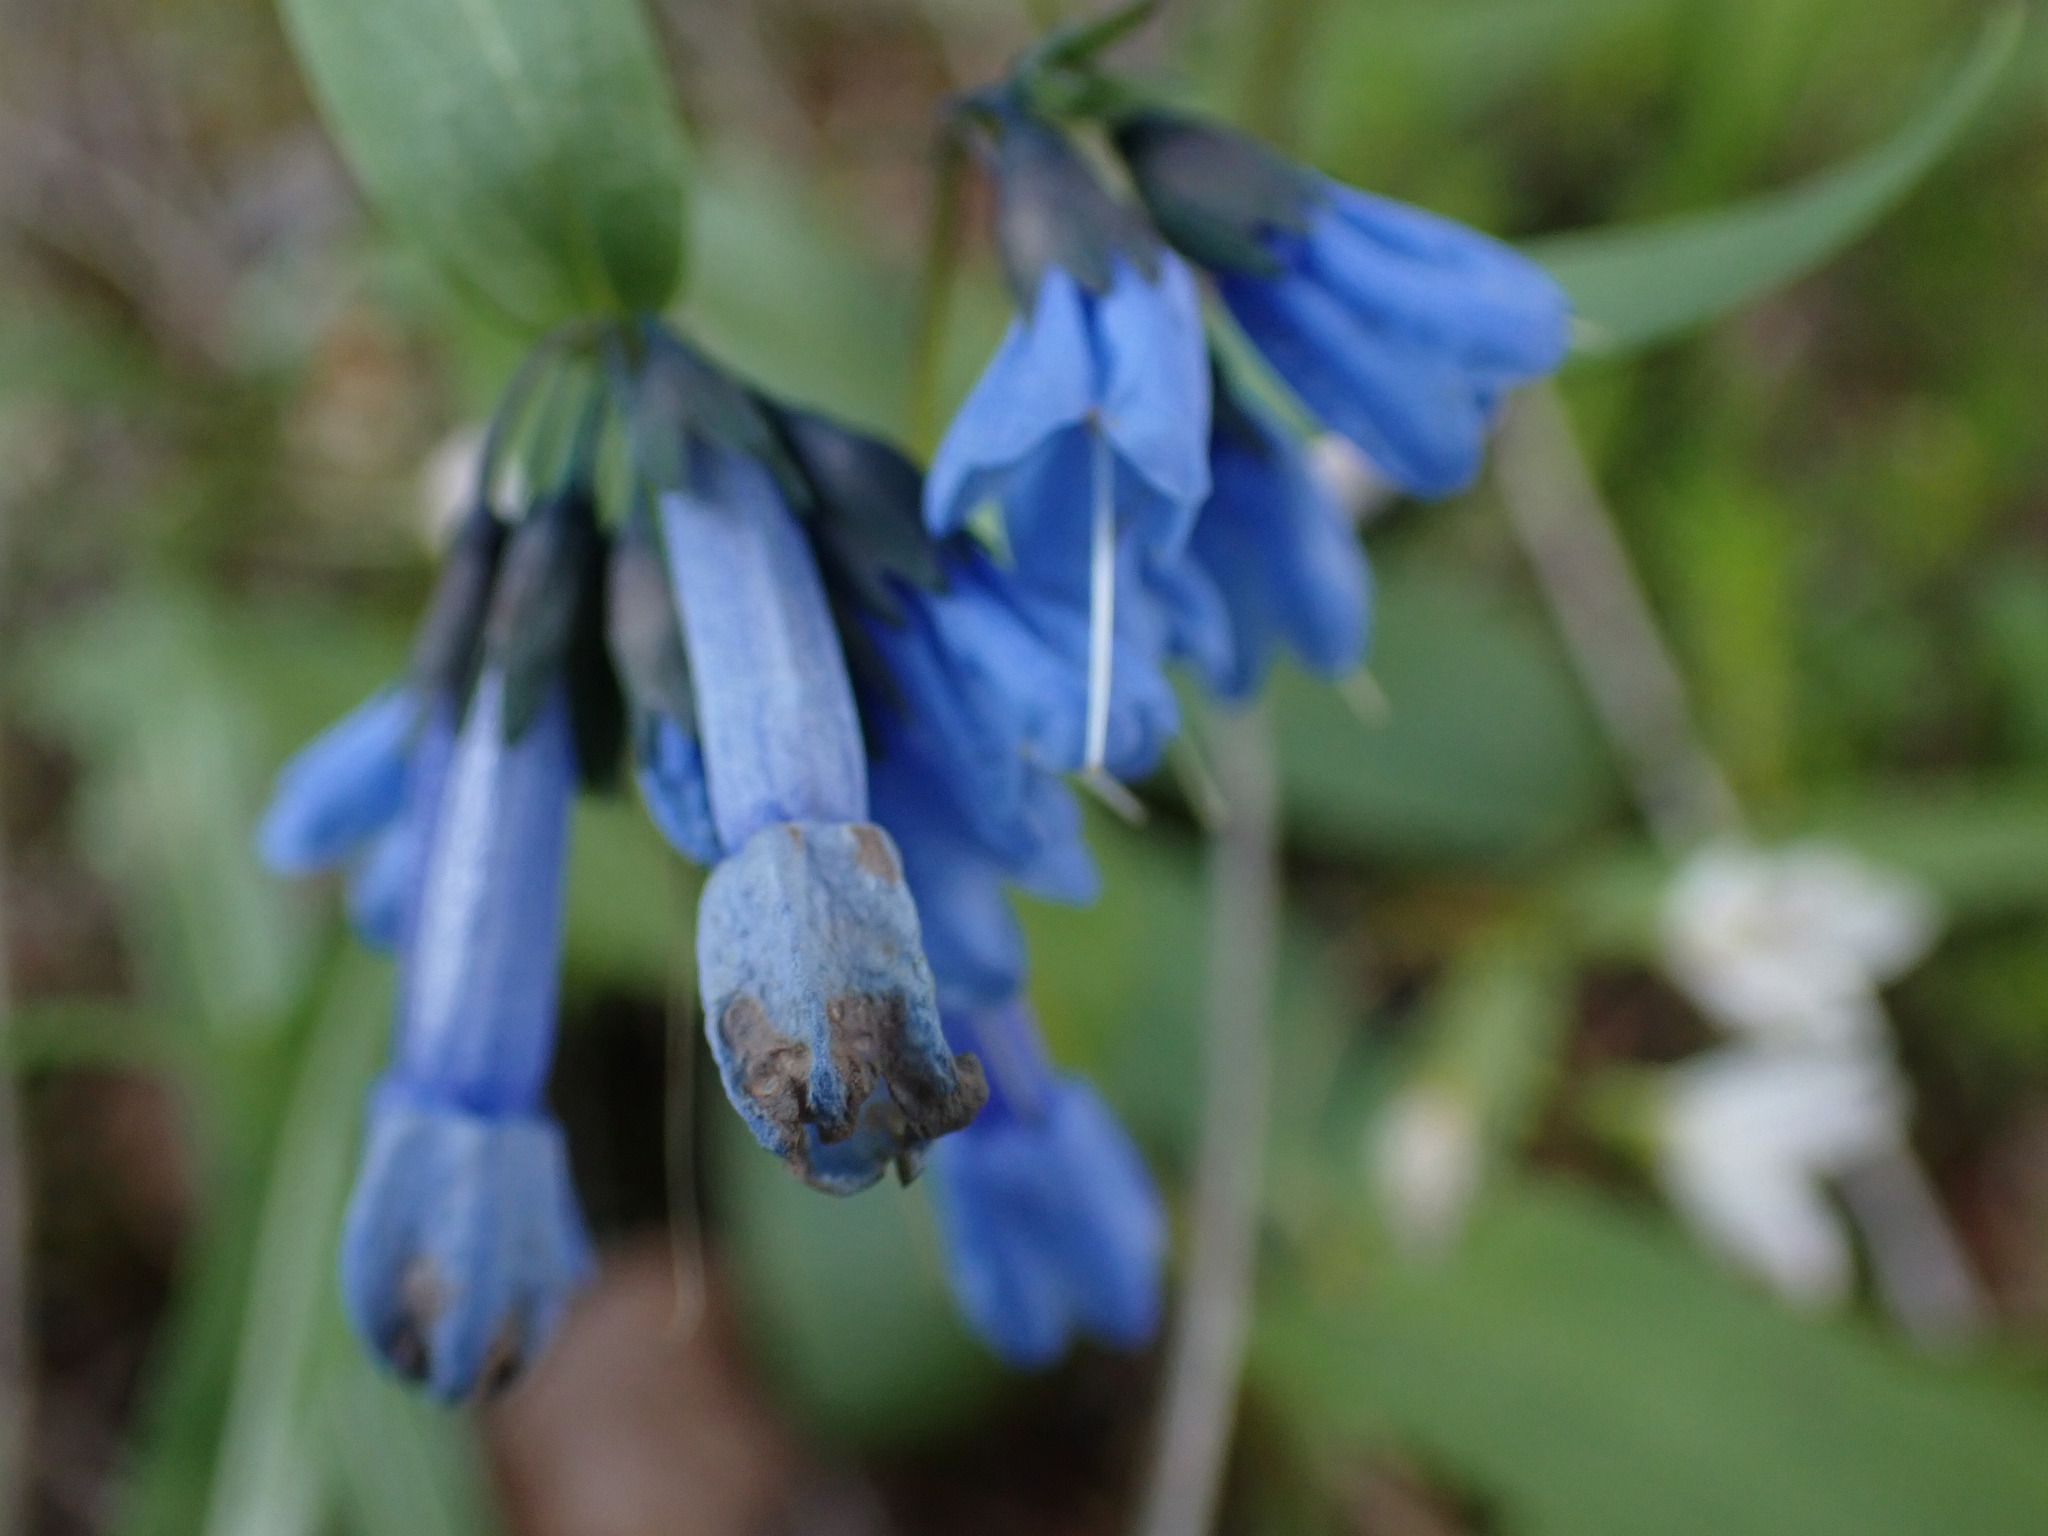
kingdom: Plantae
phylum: Tracheophyta
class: Magnoliopsida
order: Boraginales
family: Boraginaceae
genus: Mertensia
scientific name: Mertensia longiflora
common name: Large-flowered bluebells
